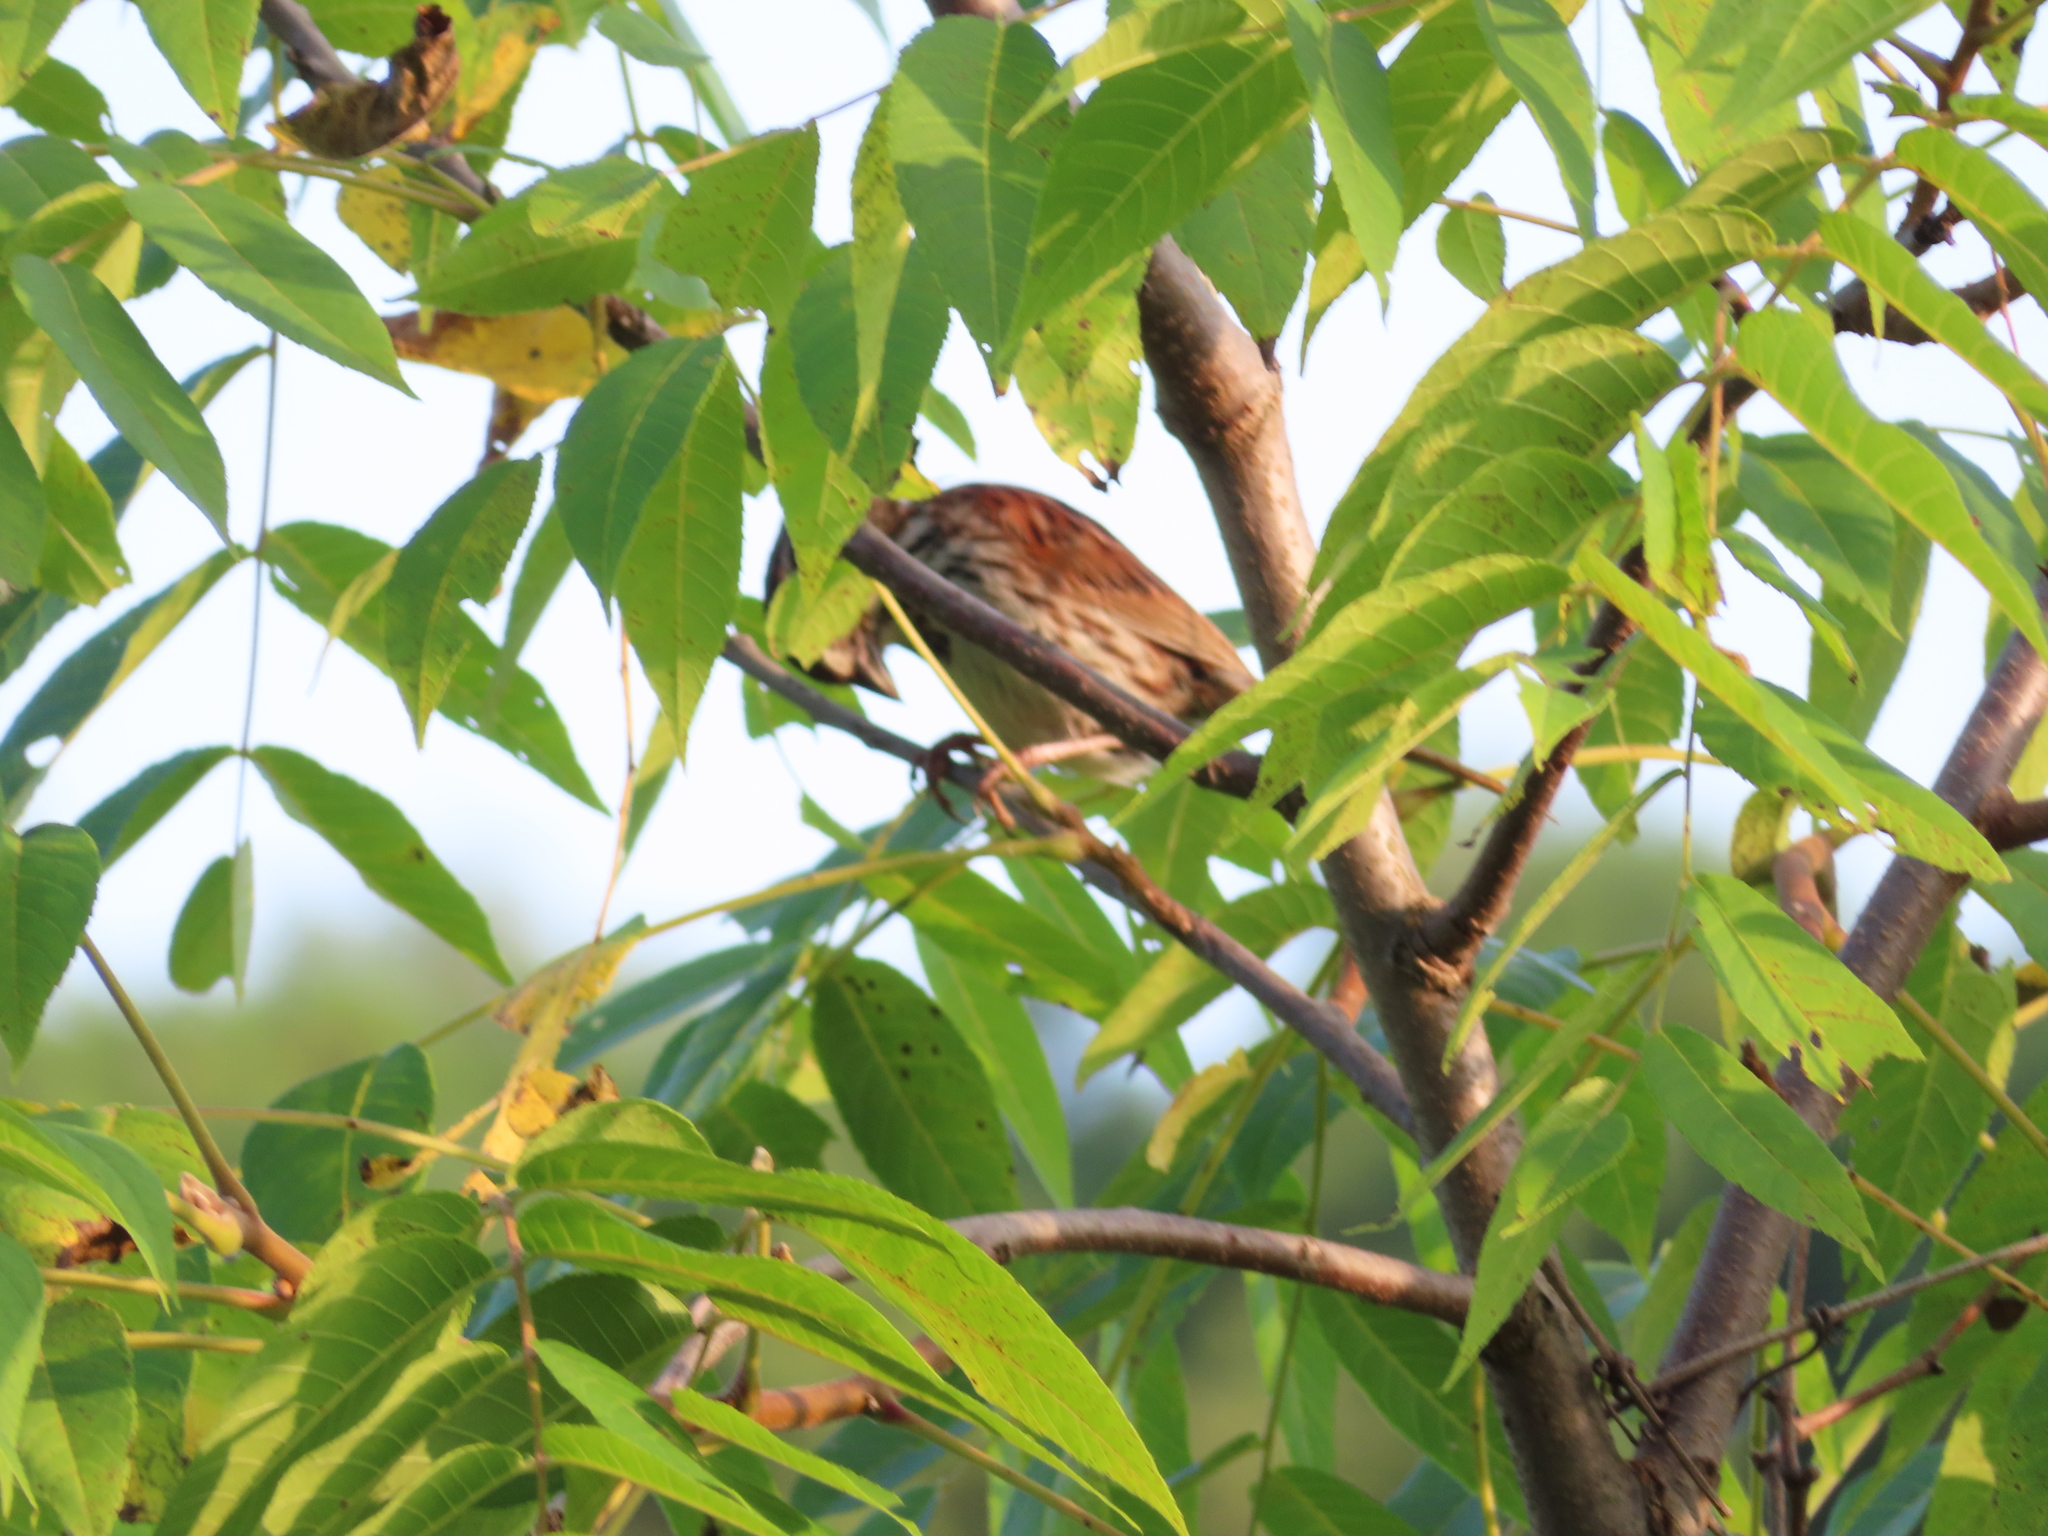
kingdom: Animalia
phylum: Chordata
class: Aves
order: Passeriformes
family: Passerellidae
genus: Melospiza
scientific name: Melospiza melodia
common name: Song sparrow
